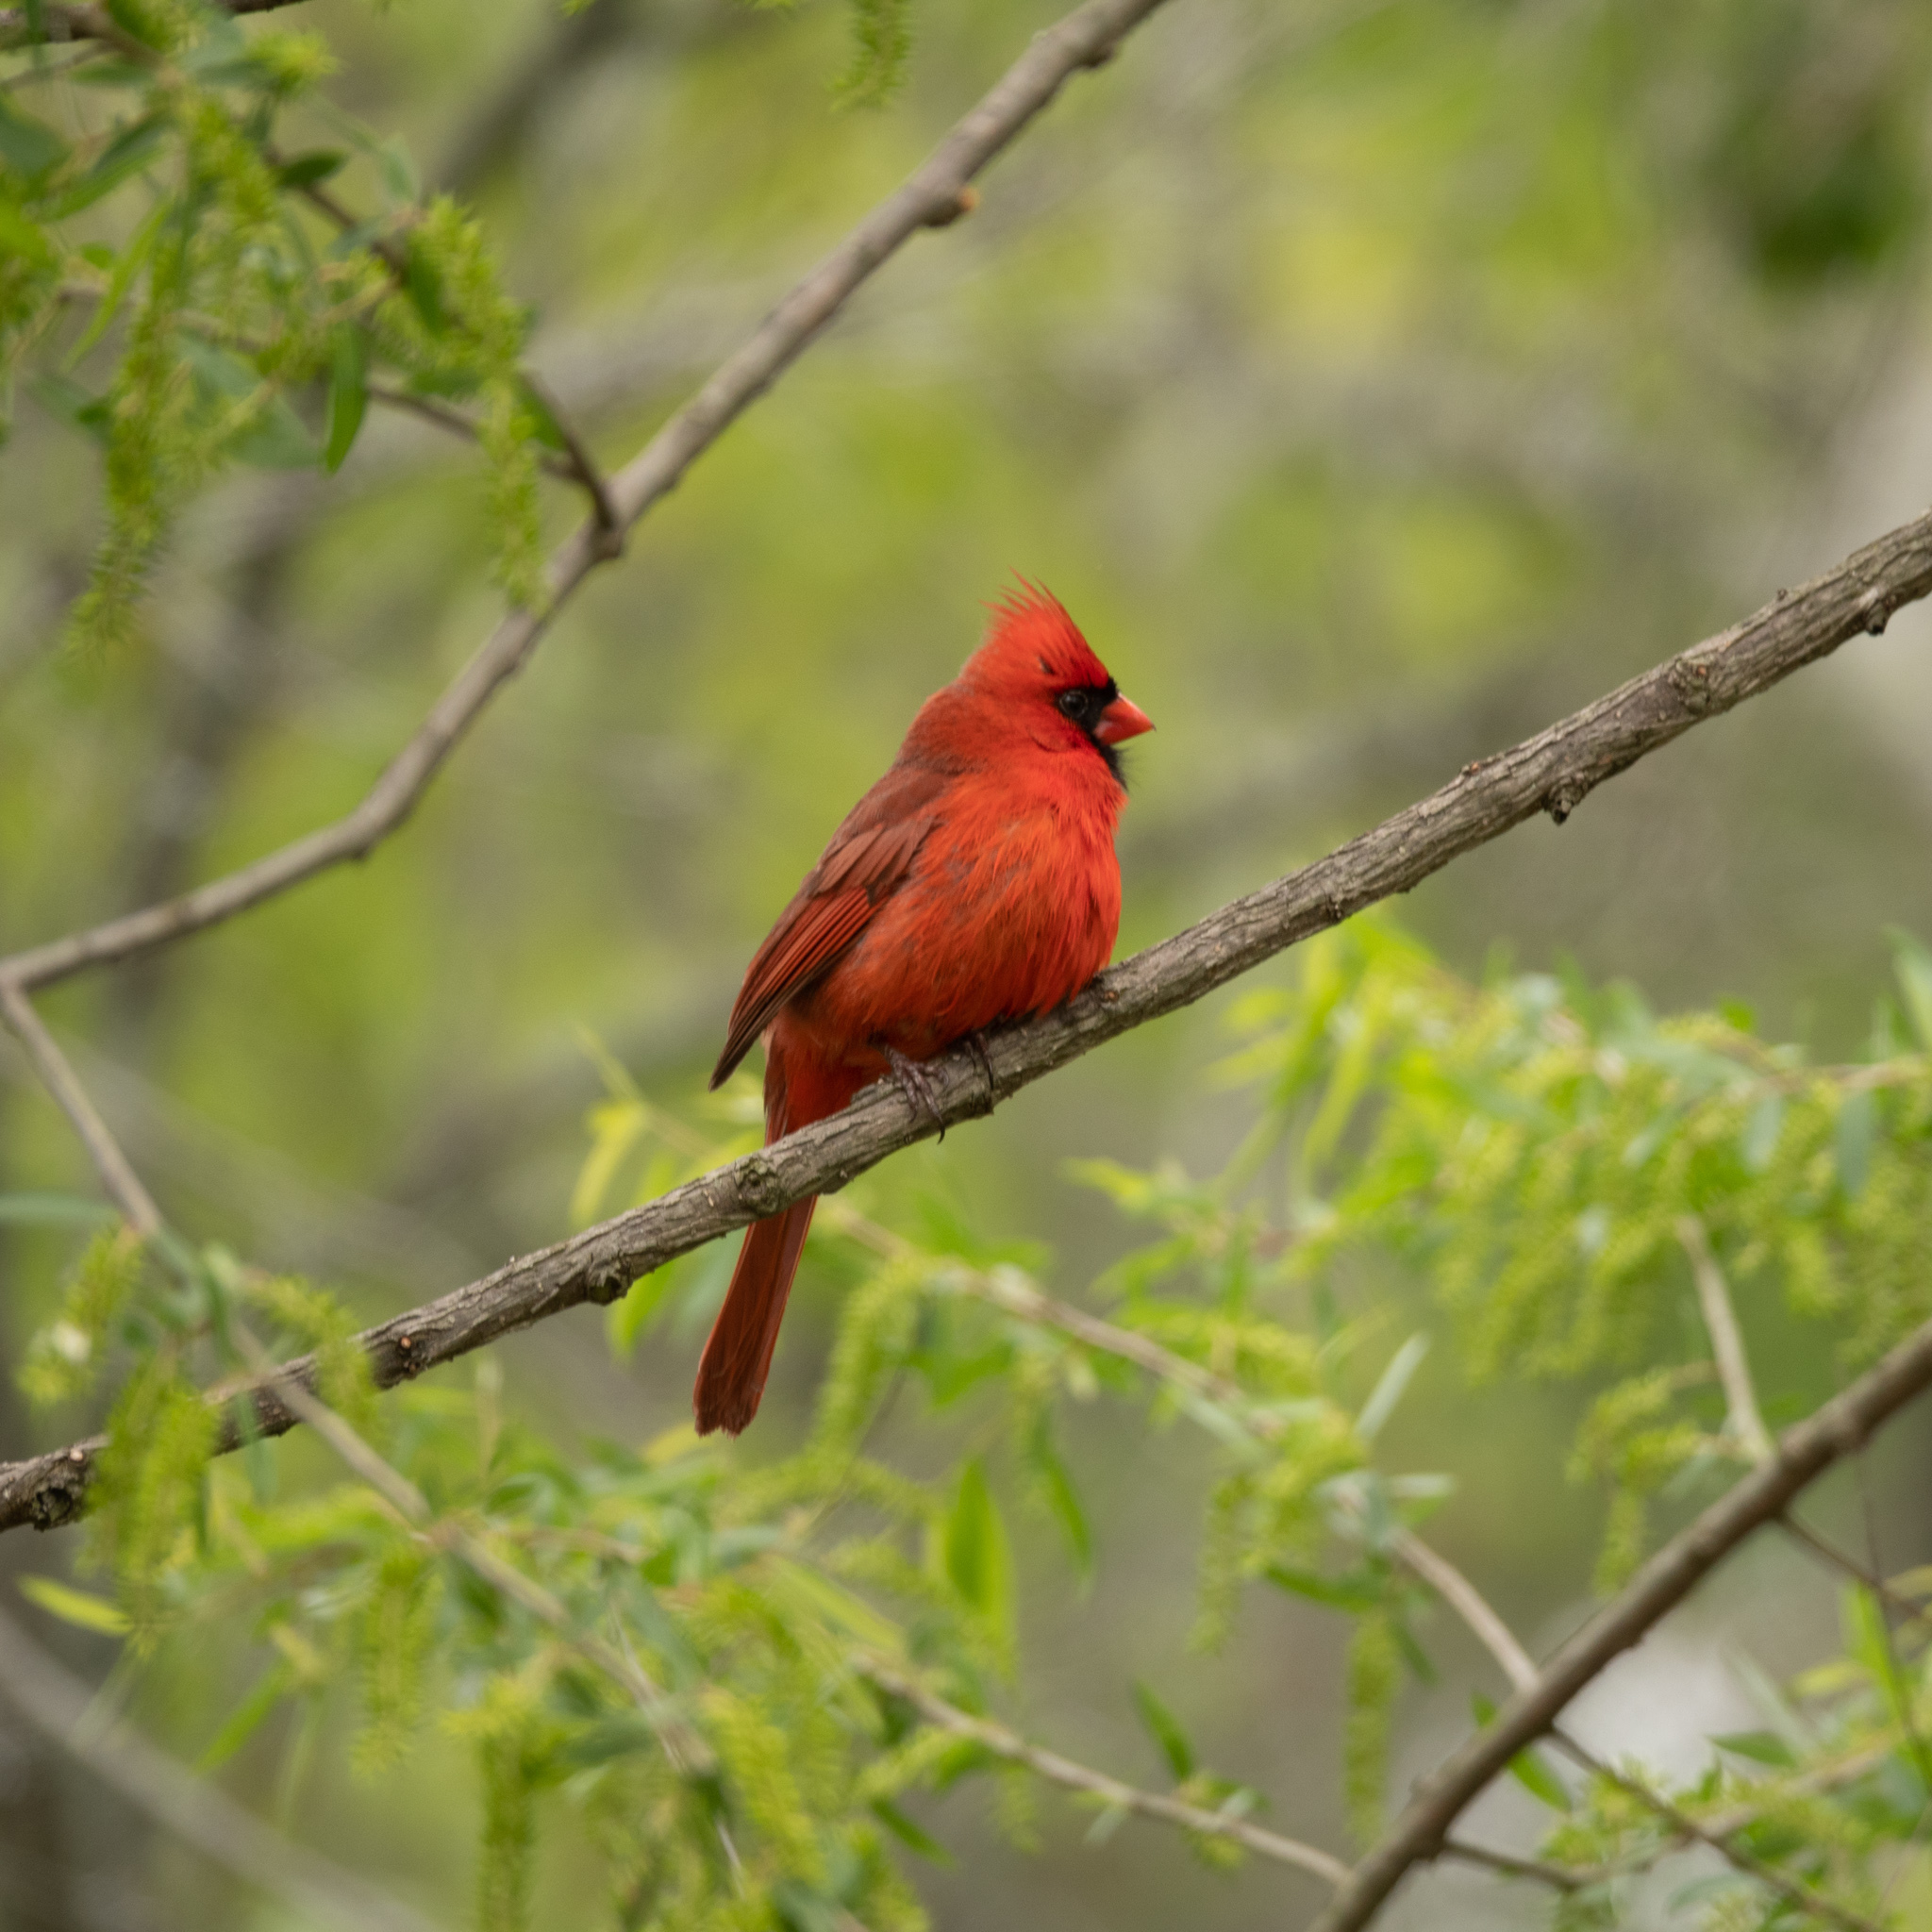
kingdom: Animalia
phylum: Chordata
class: Aves
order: Passeriformes
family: Cardinalidae
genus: Cardinalis
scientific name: Cardinalis cardinalis
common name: Northern cardinal
